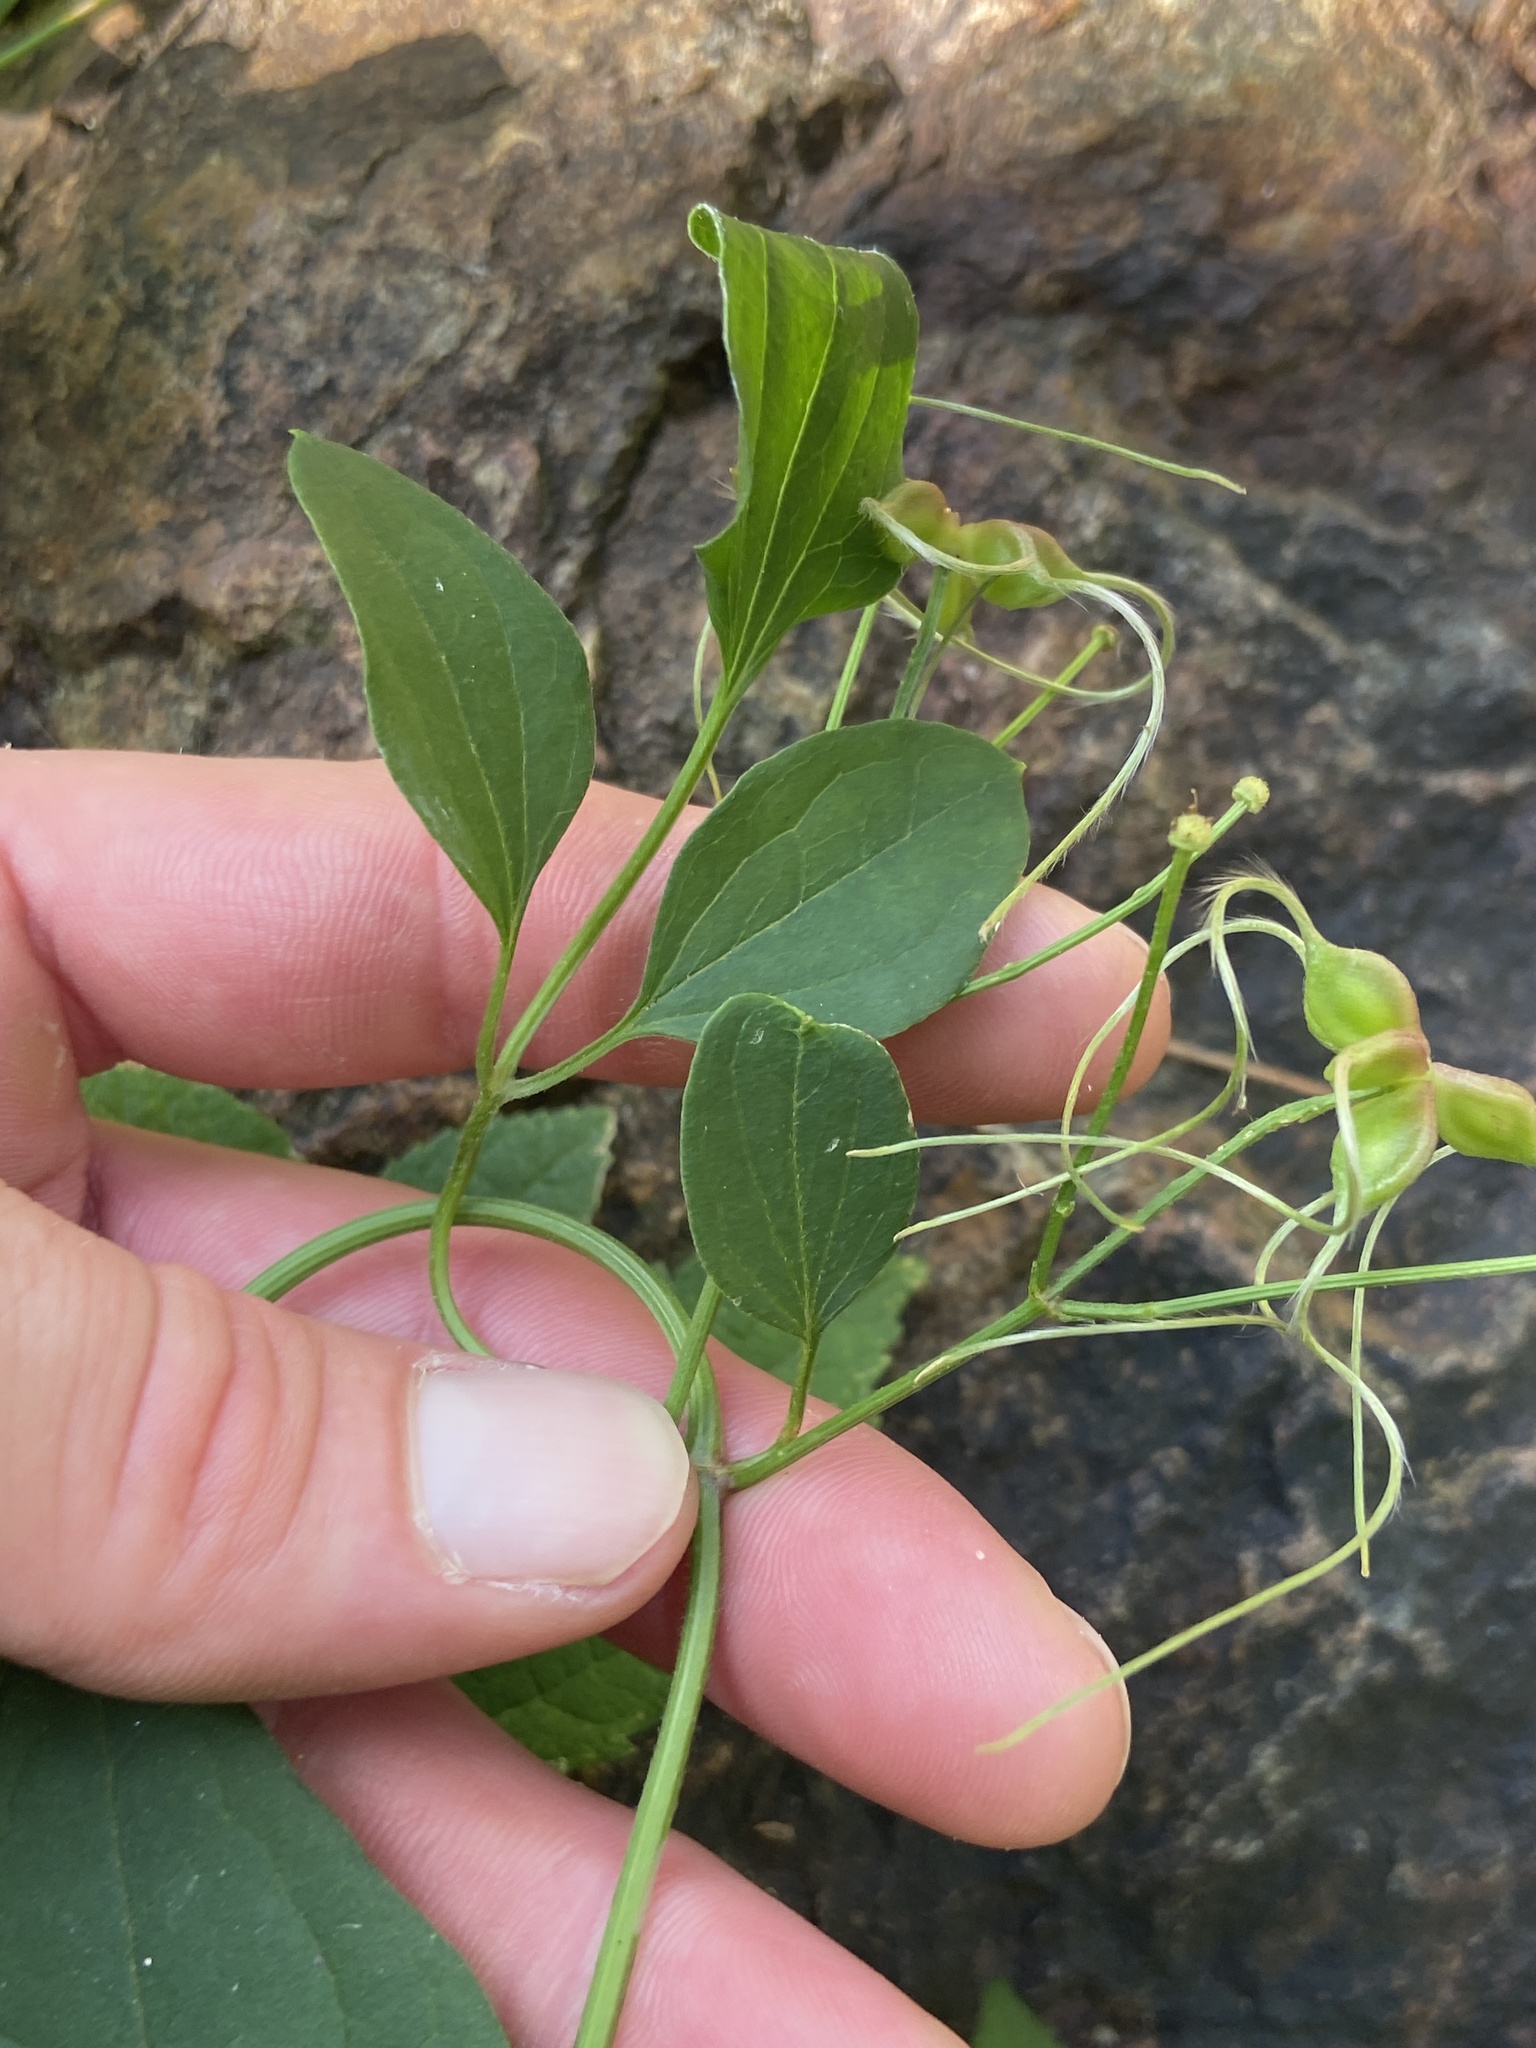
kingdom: Plantae
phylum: Tracheophyta
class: Magnoliopsida
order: Ranunculales
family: Ranunculaceae
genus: Clematis
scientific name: Clematis terniflora
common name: Sweet autumn clematis
